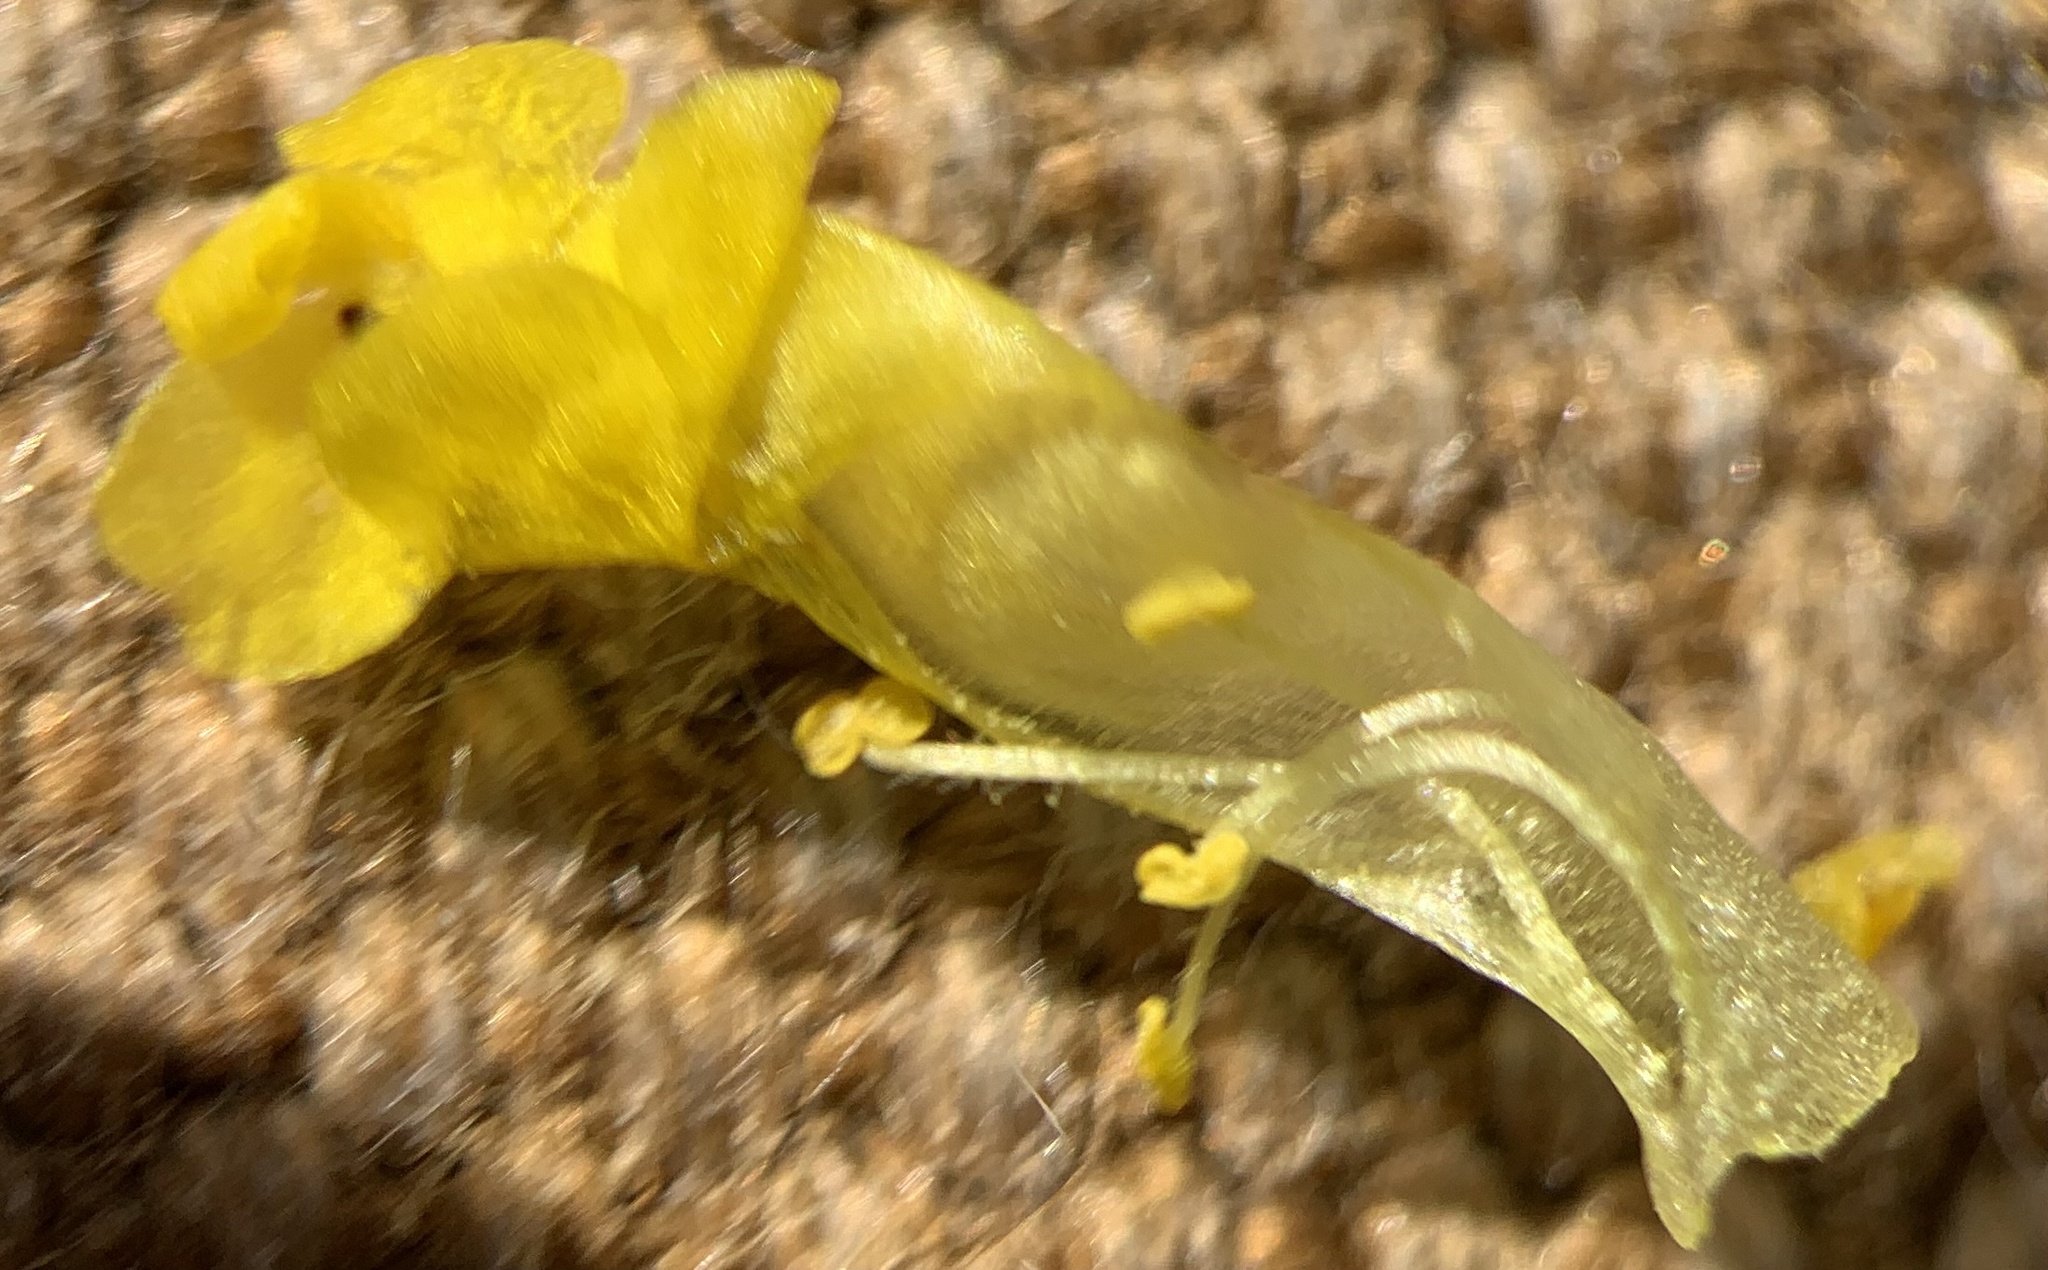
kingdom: Plantae
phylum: Tracheophyta
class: Magnoliopsida
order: Lamiales
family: Phrymaceae
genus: Mimetanthe
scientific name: Mimetanthe pilosa
